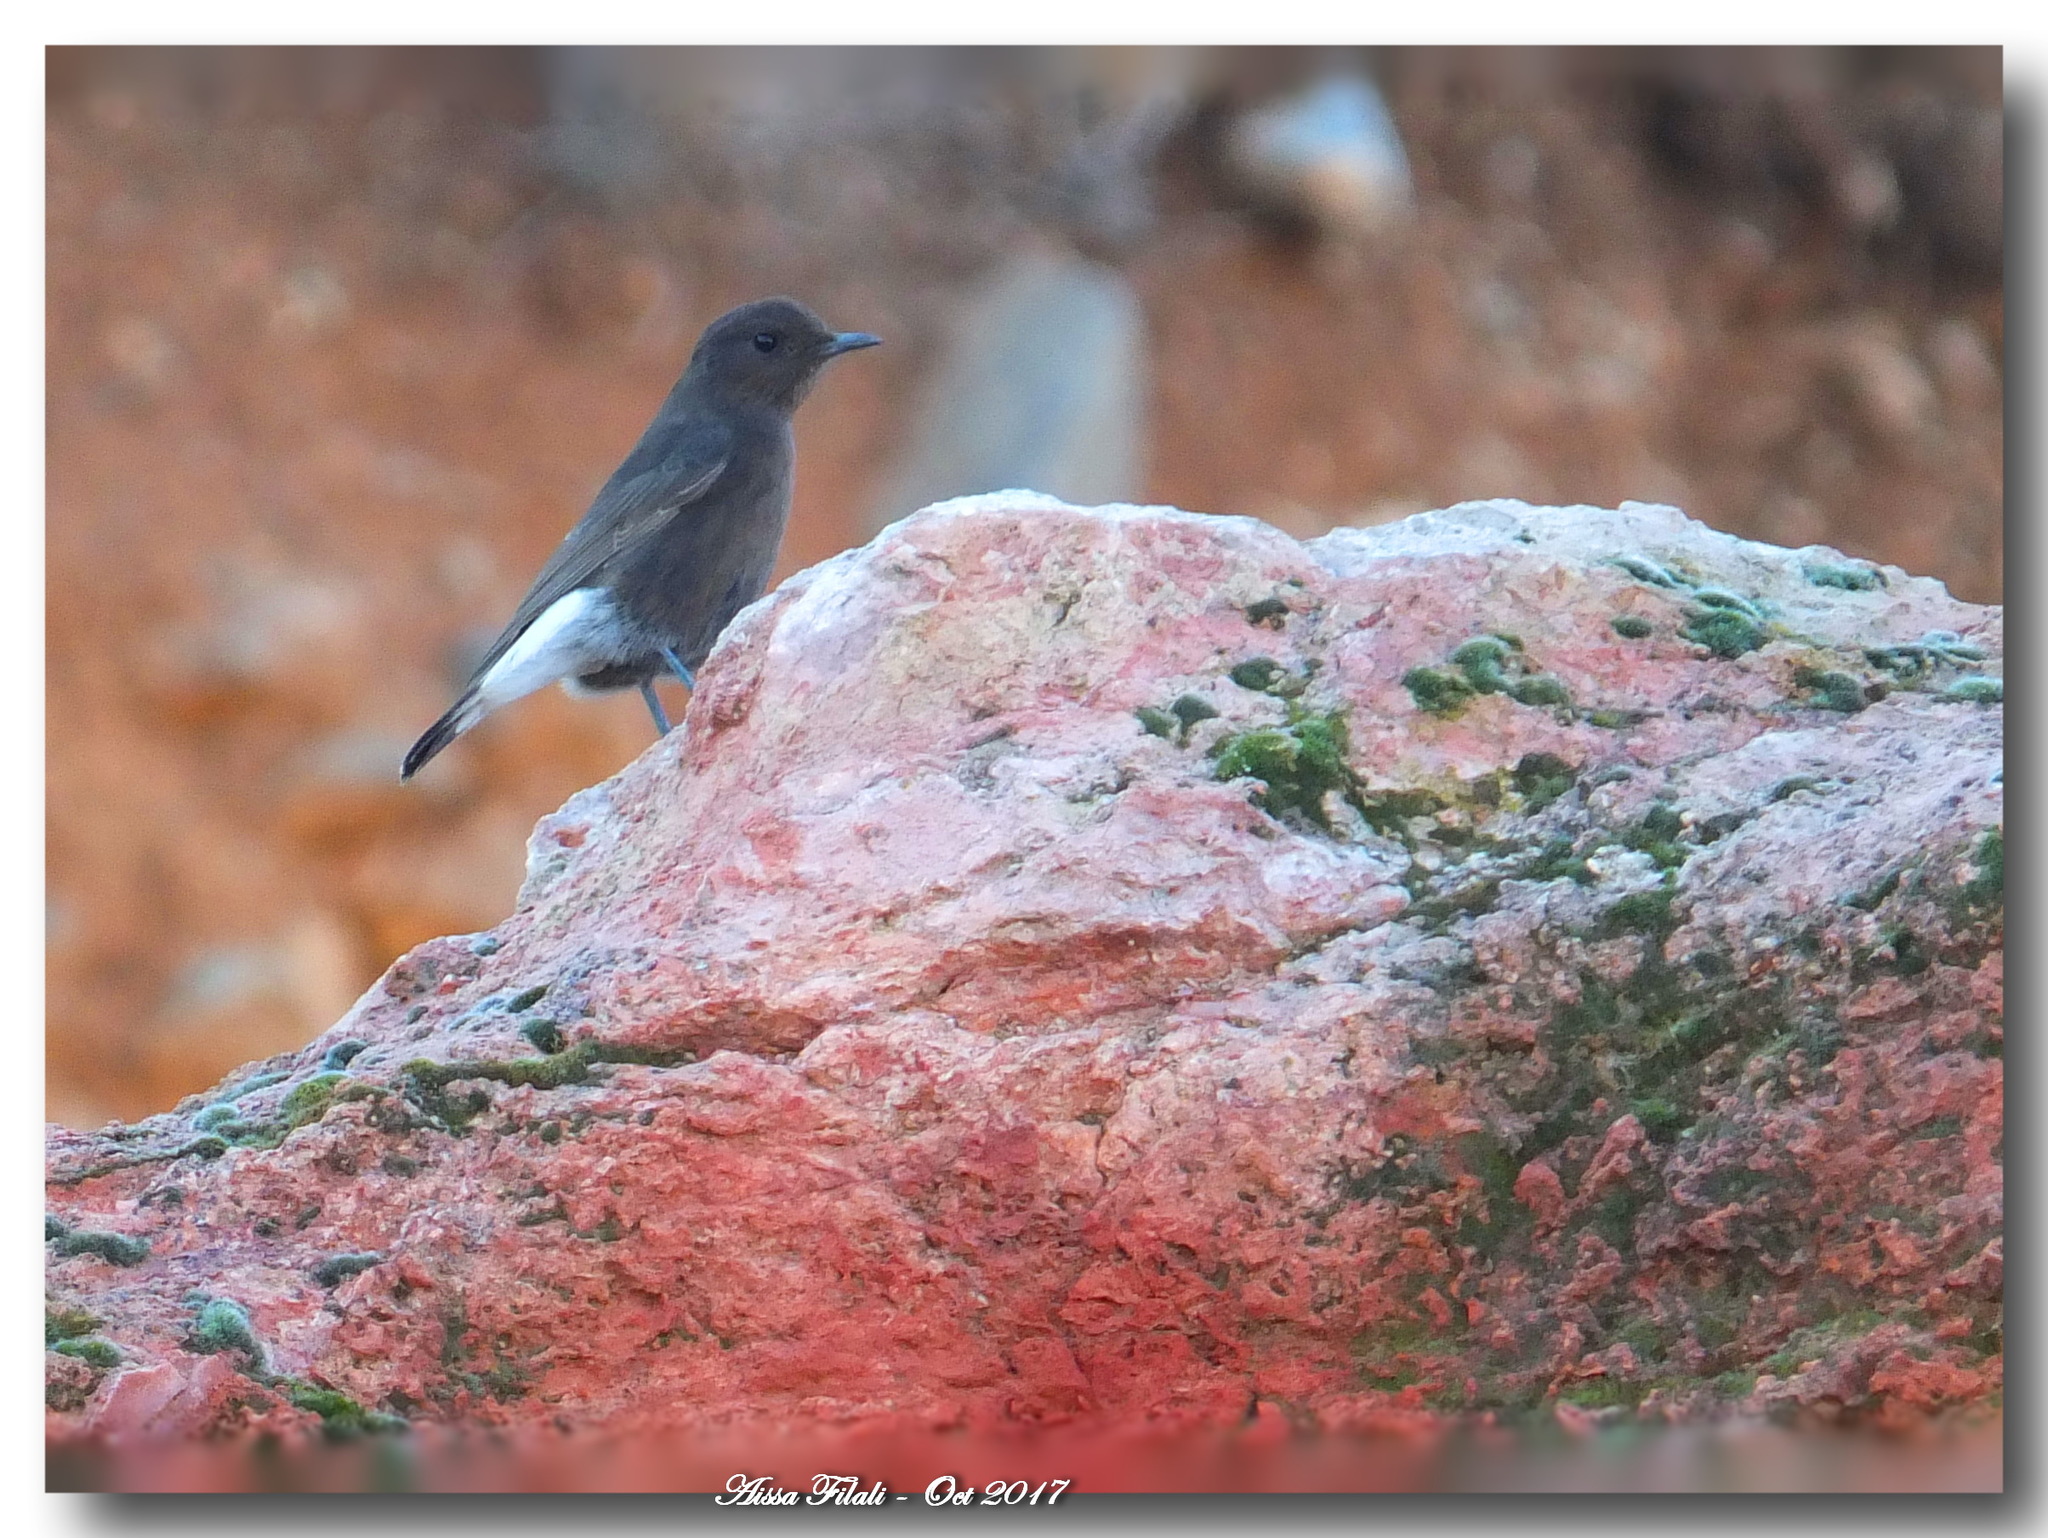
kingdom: Animalia
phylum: Chordata
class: Aves
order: Passeriformes
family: Muscicapidae
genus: Oenanthe
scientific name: Oenanthe leucura
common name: Black wheatear
